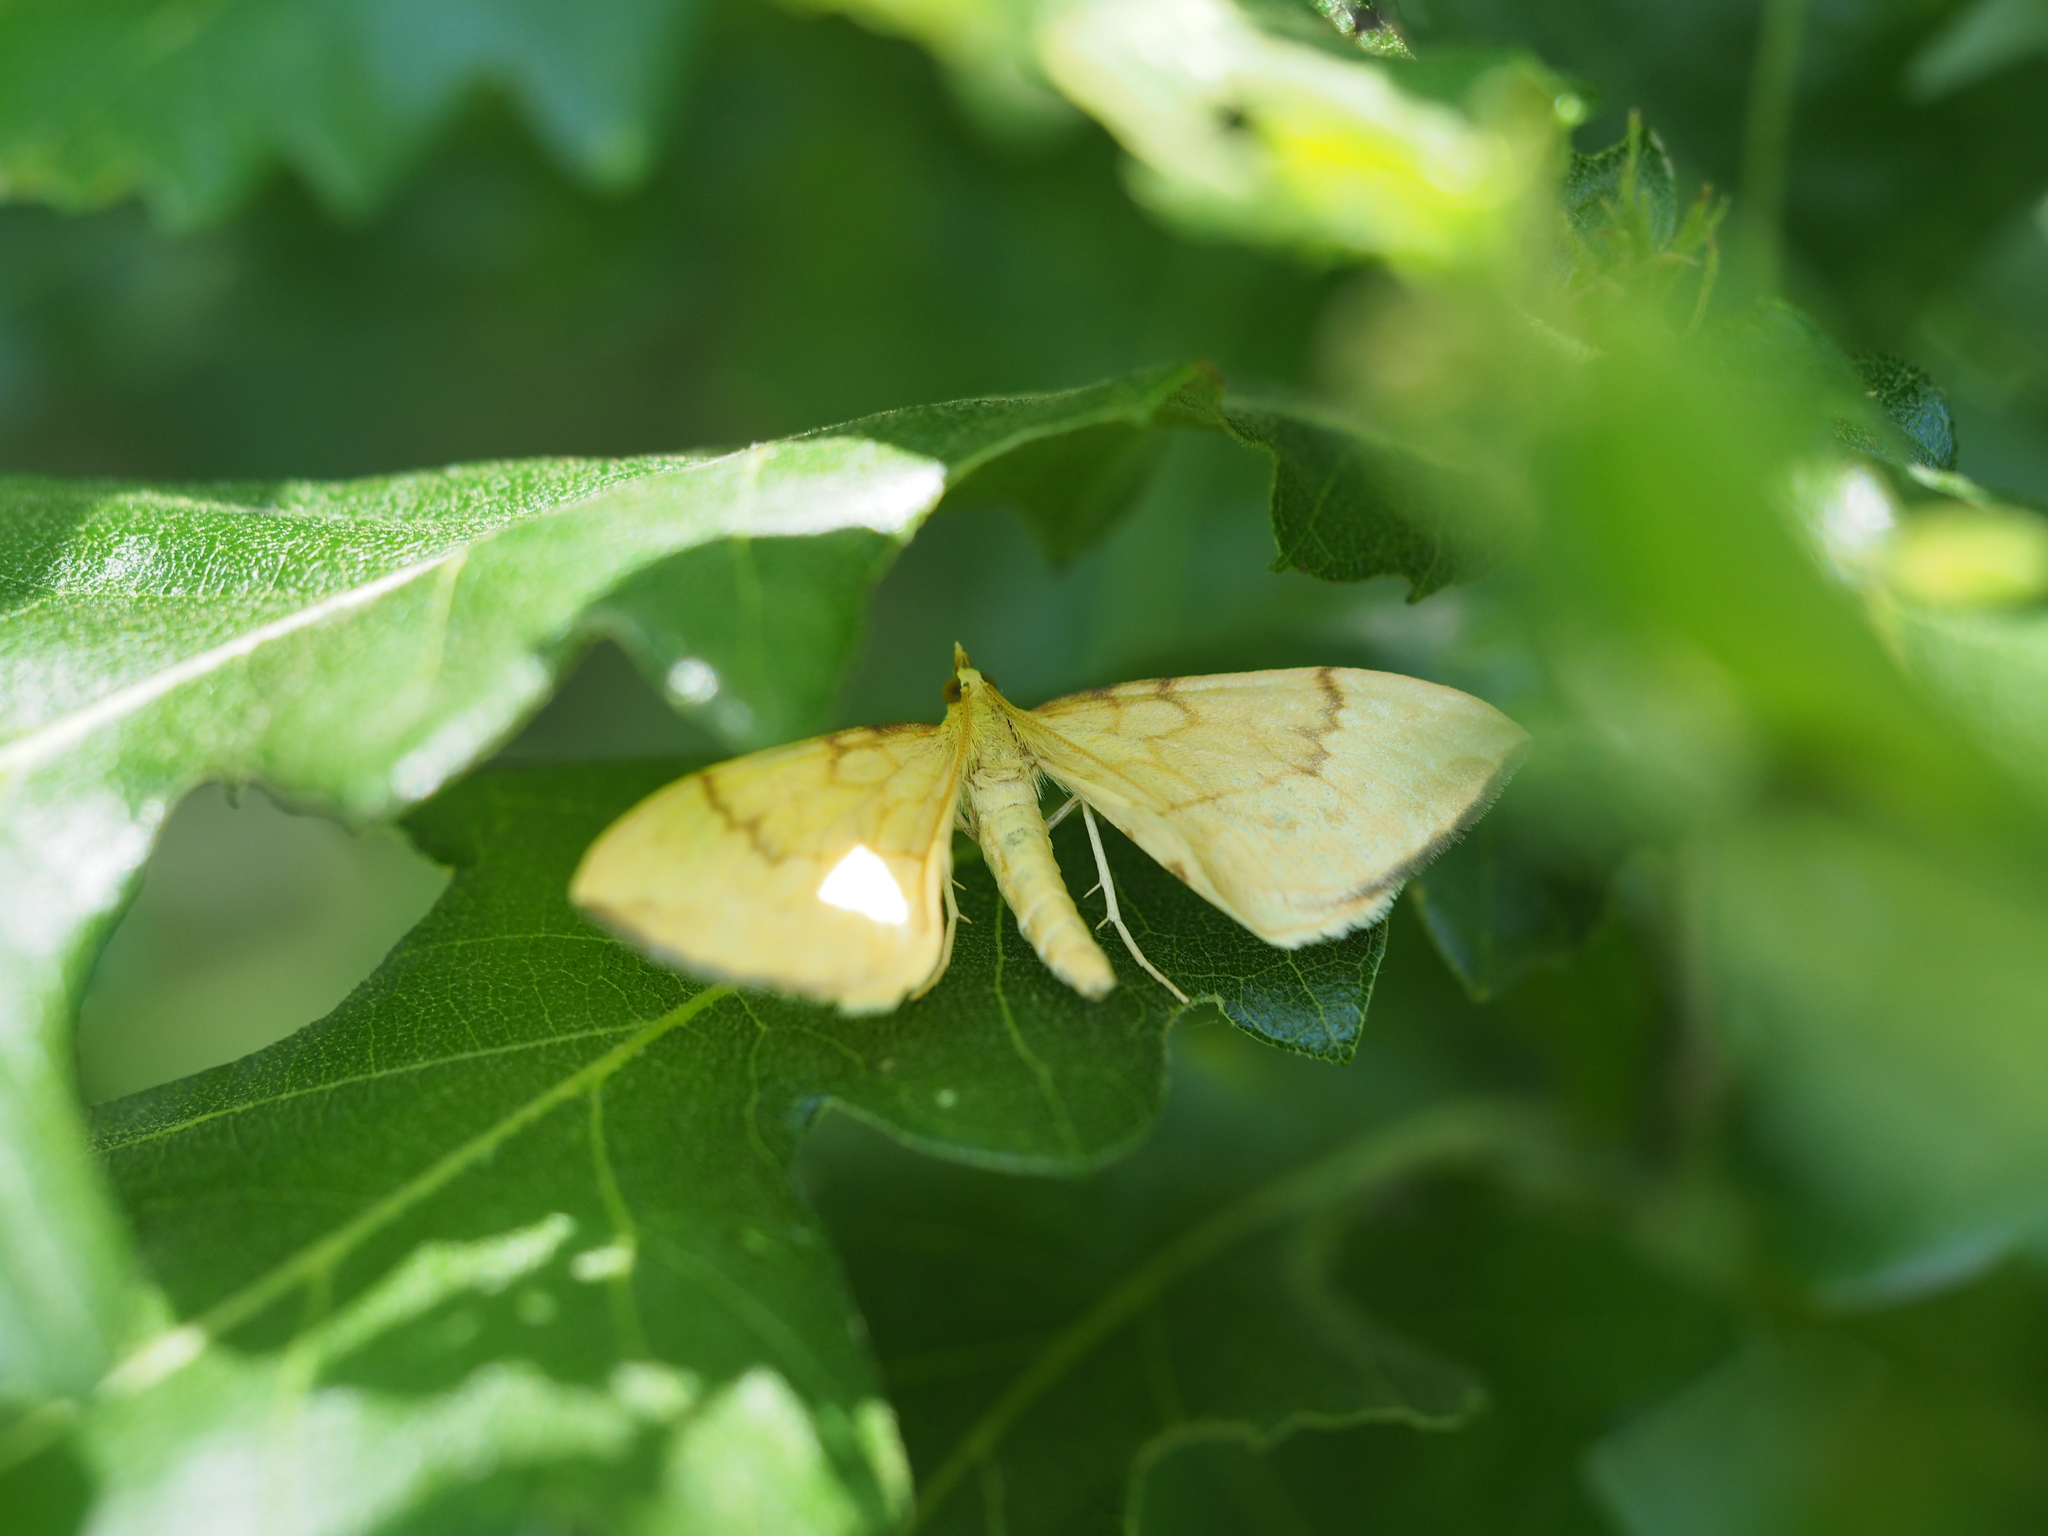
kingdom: Animalia
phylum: Arthropoda
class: Insecta
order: Lepidoptera
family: Geometridae
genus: Eulithis
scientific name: Eulithis pyraliata
